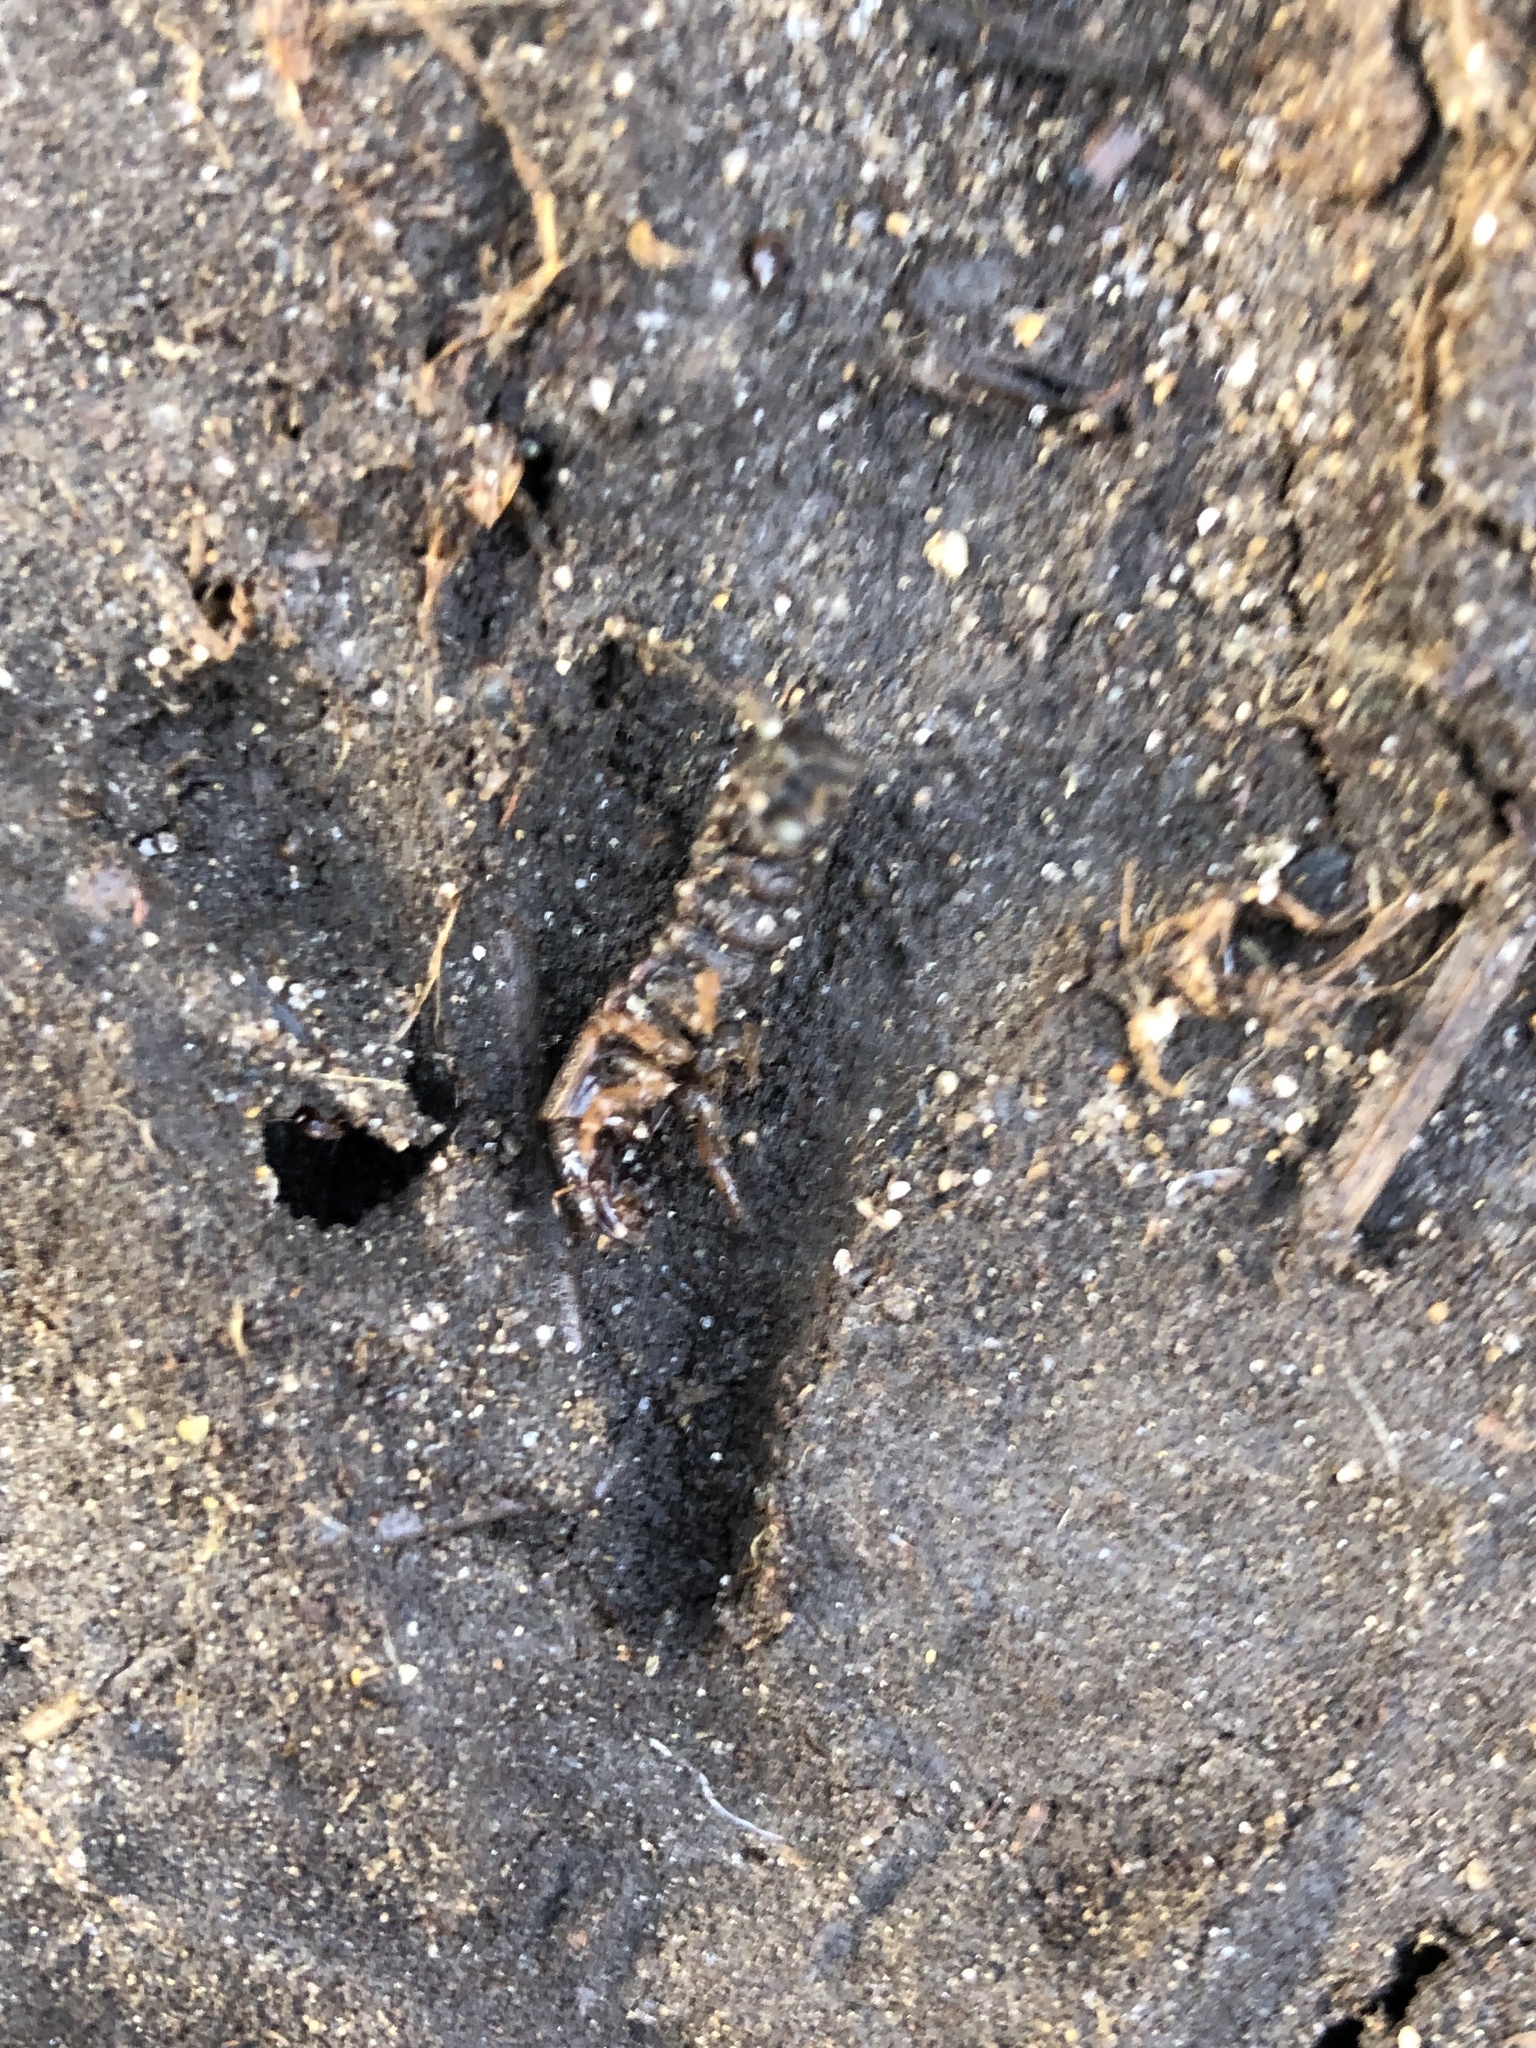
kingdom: Animalia
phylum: Arthropoda
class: Insecta
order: Megaloptera
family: Corydalidae
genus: Chauliodes
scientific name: Chauliodes rastricornis
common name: Spring fishfly
